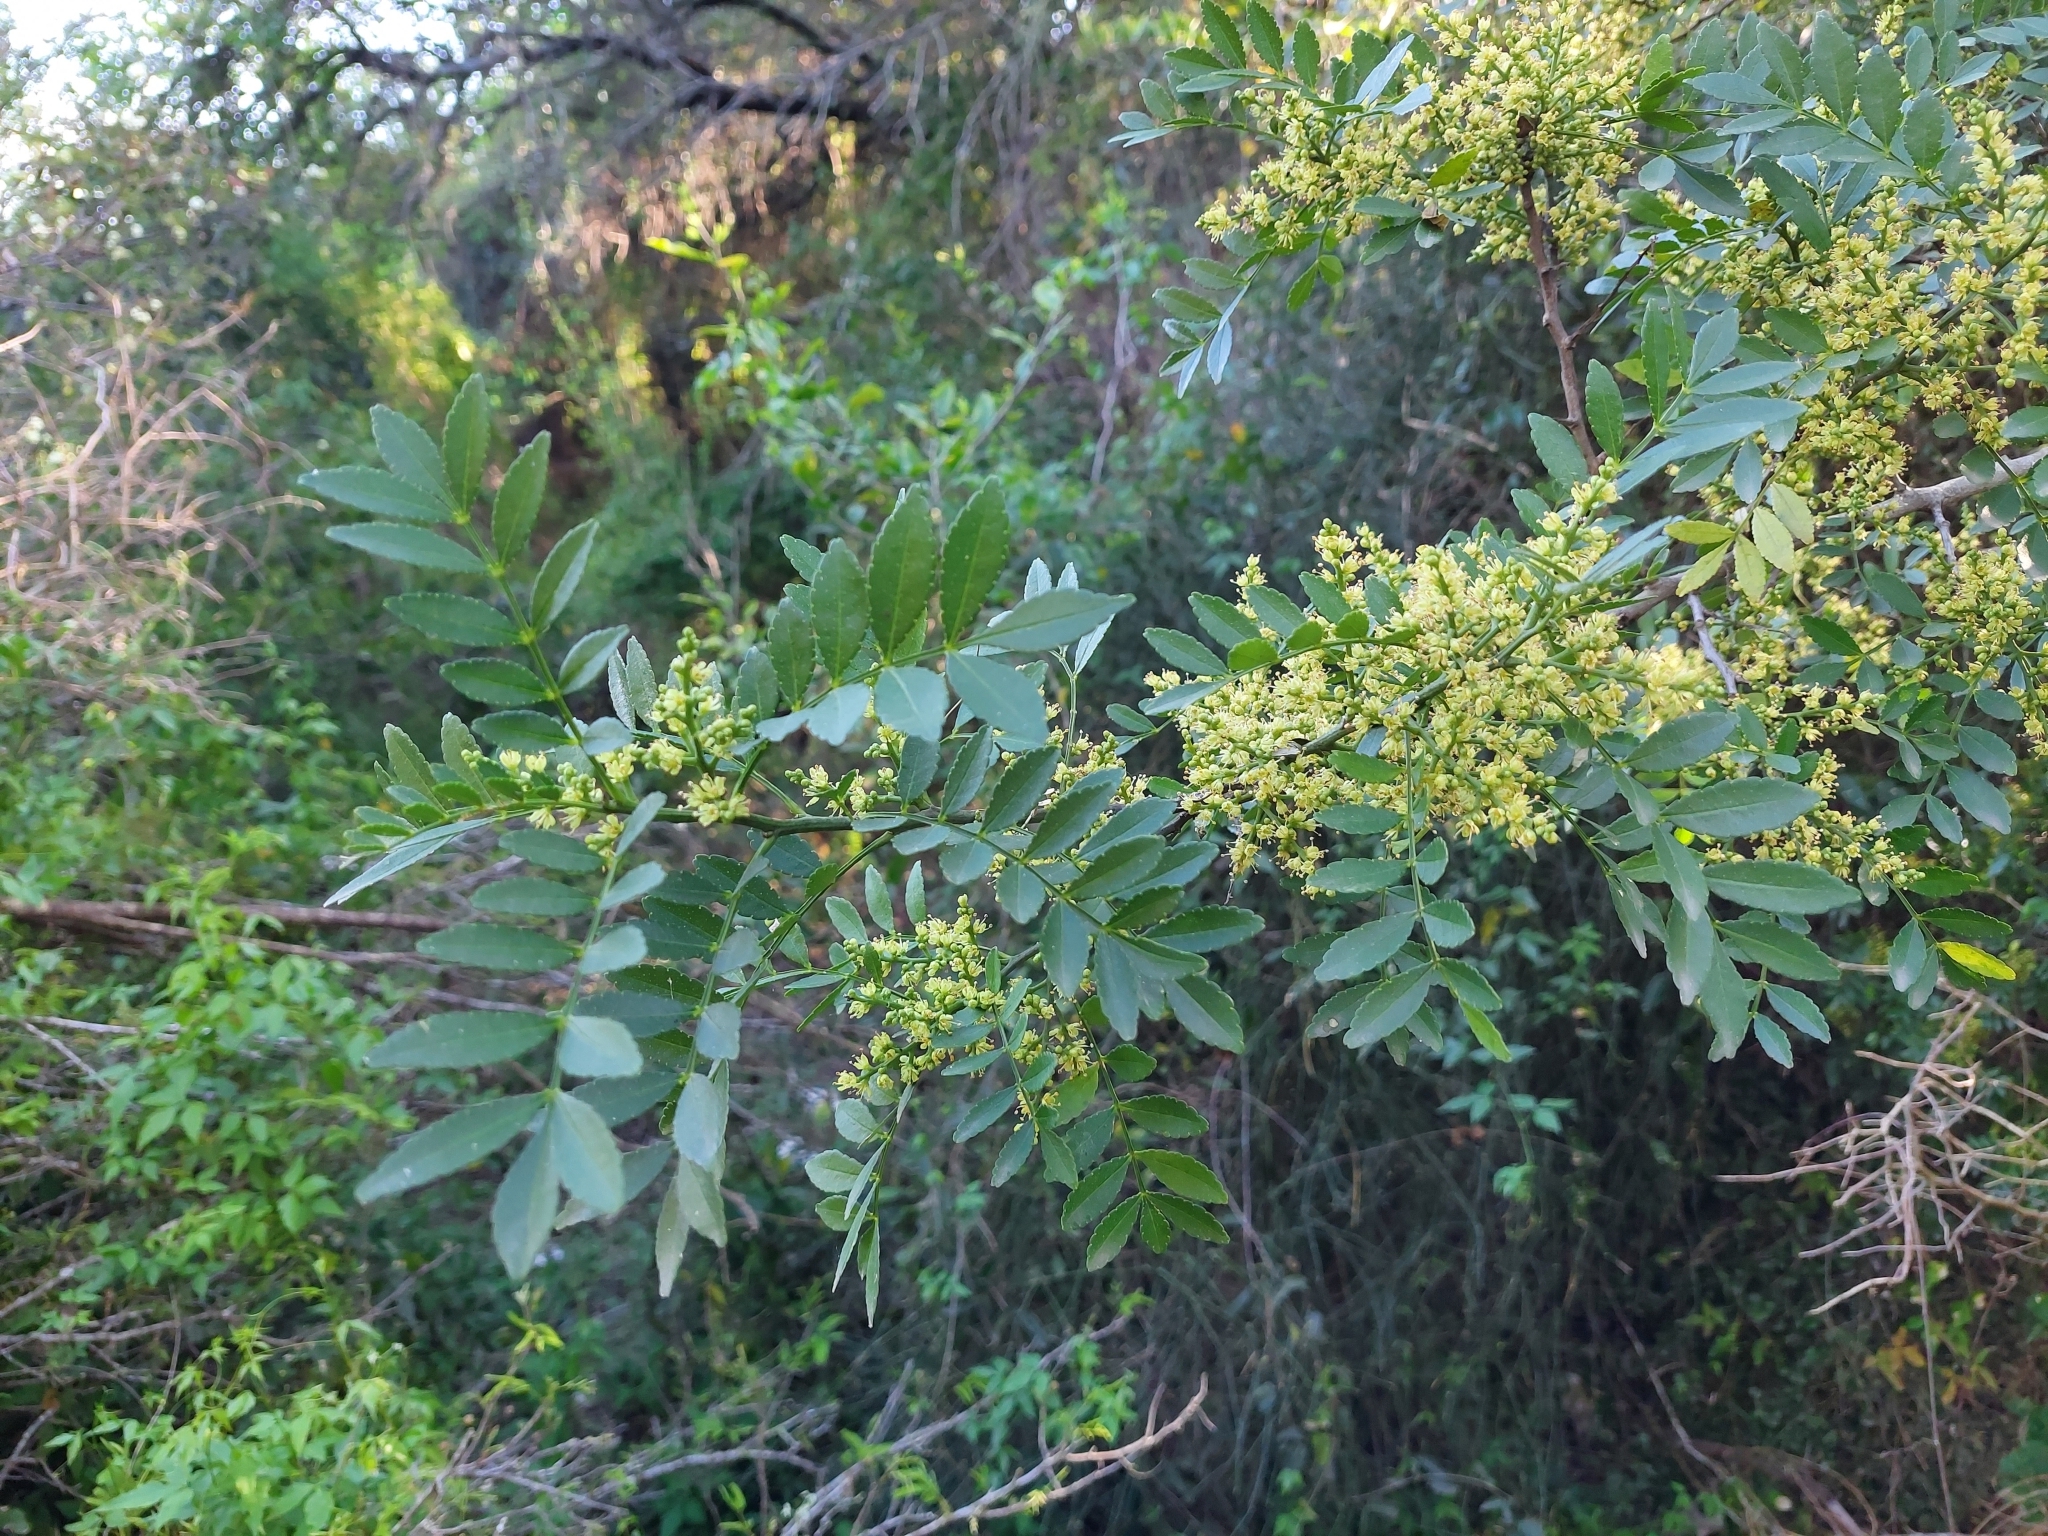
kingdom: Plantae
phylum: Tracheophyta
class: Magnoliopsida
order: Sapindales
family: Rutaceae
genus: Zanthoxylum
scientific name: Zanthoxylum fagara
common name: Lime prickly-ash
